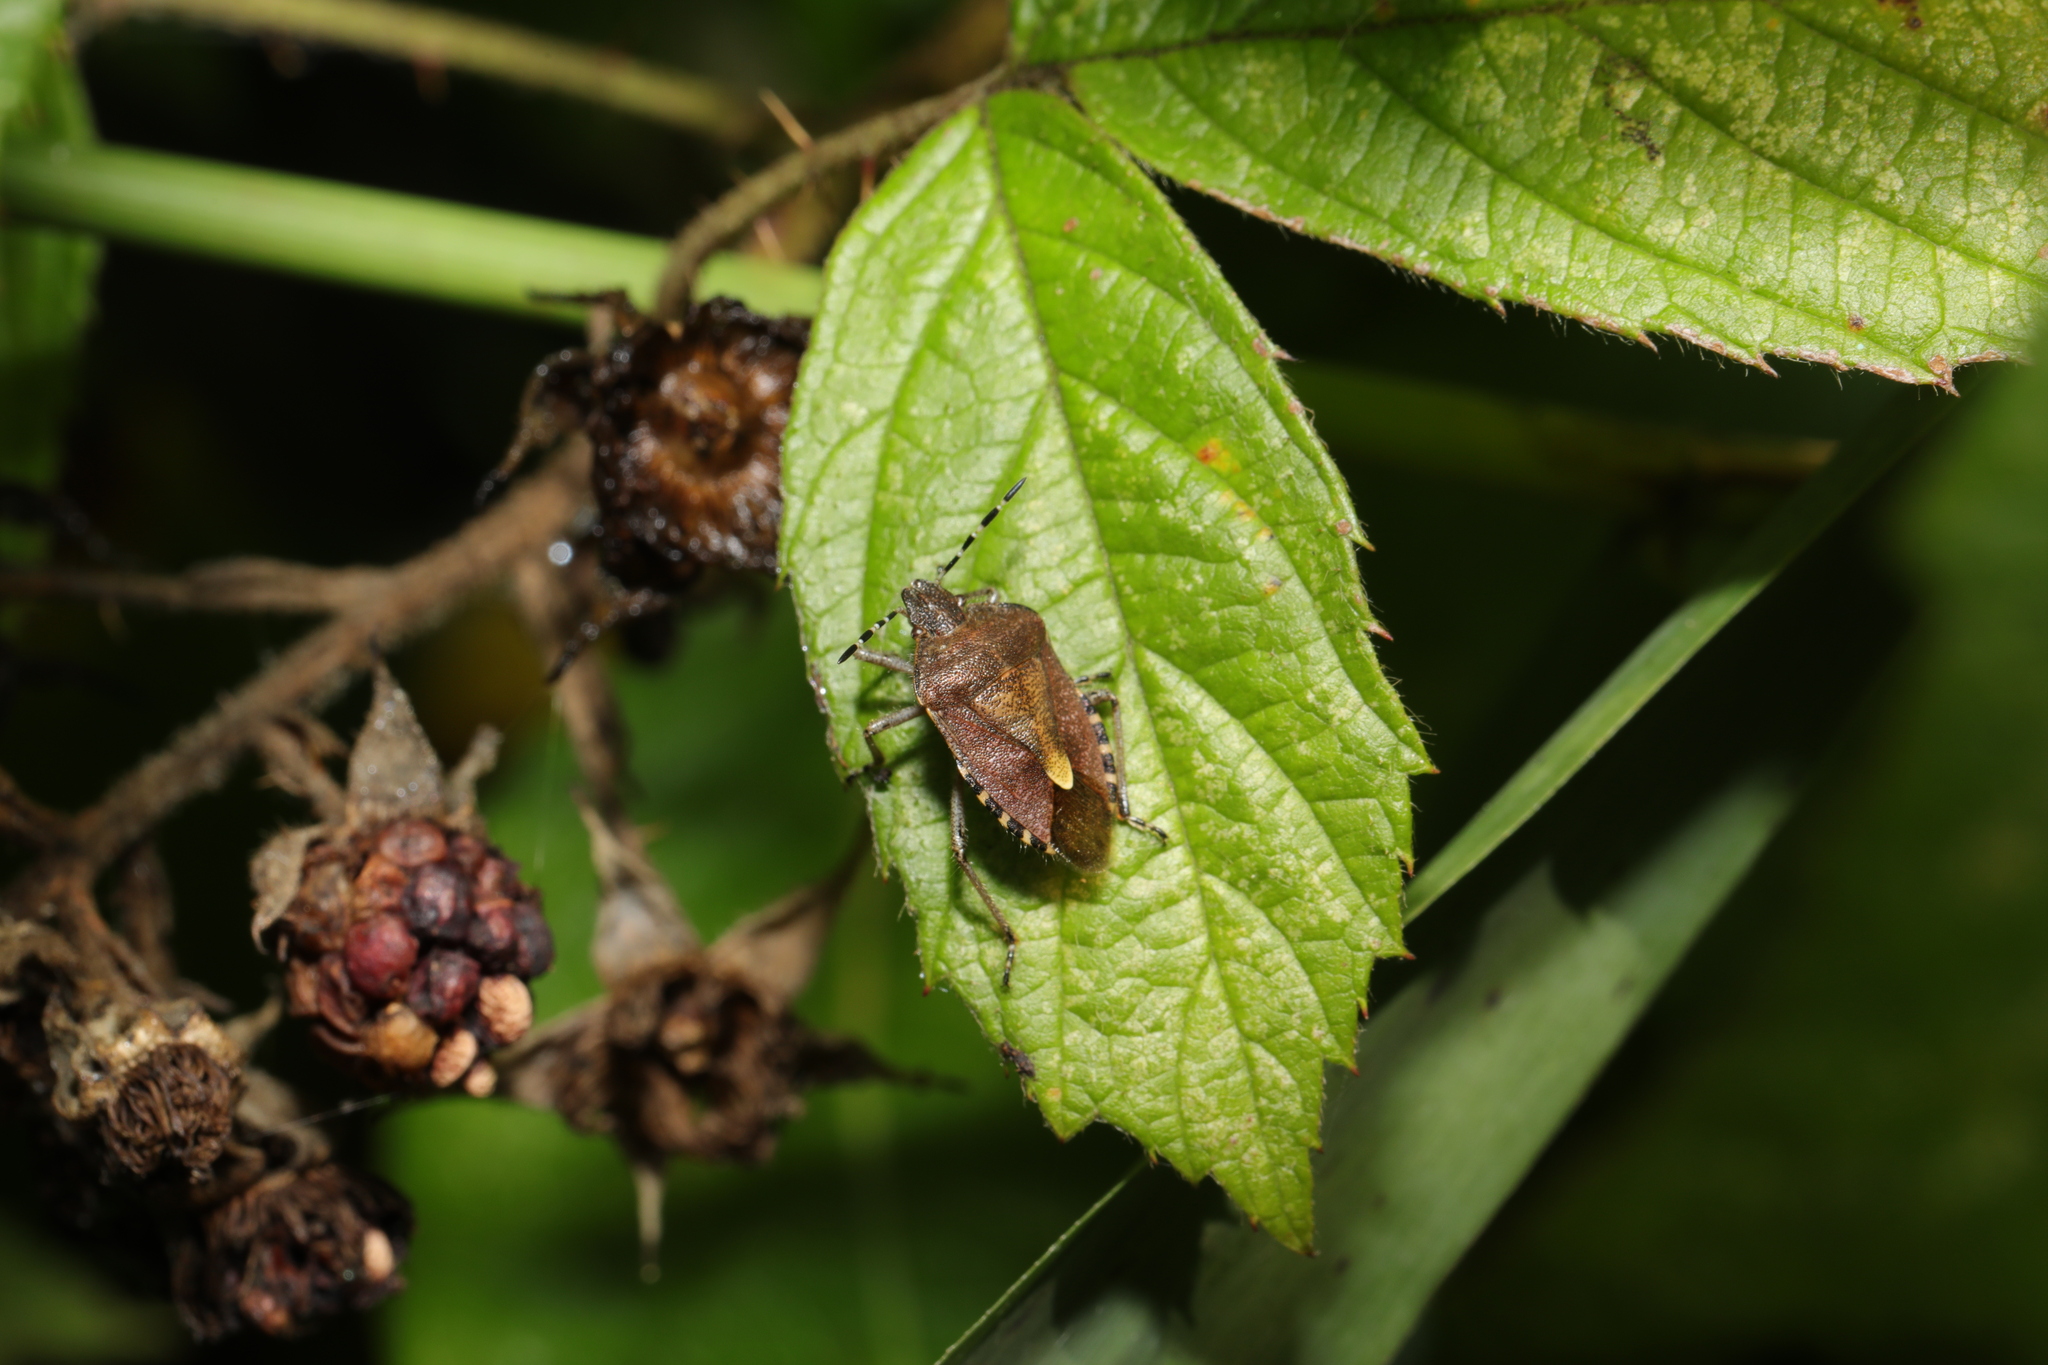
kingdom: Animalia
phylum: Arthropoda
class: Insecta
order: Hemiptera
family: Pentatomidae
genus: Dolycoris
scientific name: Dolycoris baccarum
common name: Sloe bug
